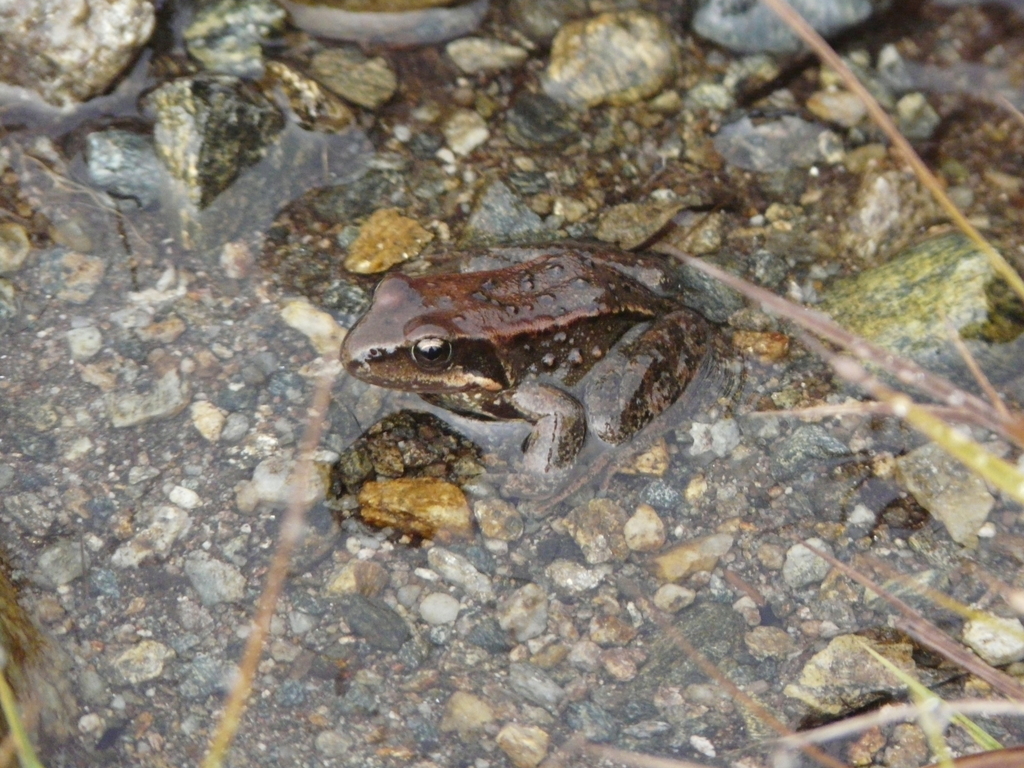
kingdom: Animalia
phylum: Chordata
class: Amphibia
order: Anura
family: Ranidae
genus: Rana
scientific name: Rana temporaria
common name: Common frog
